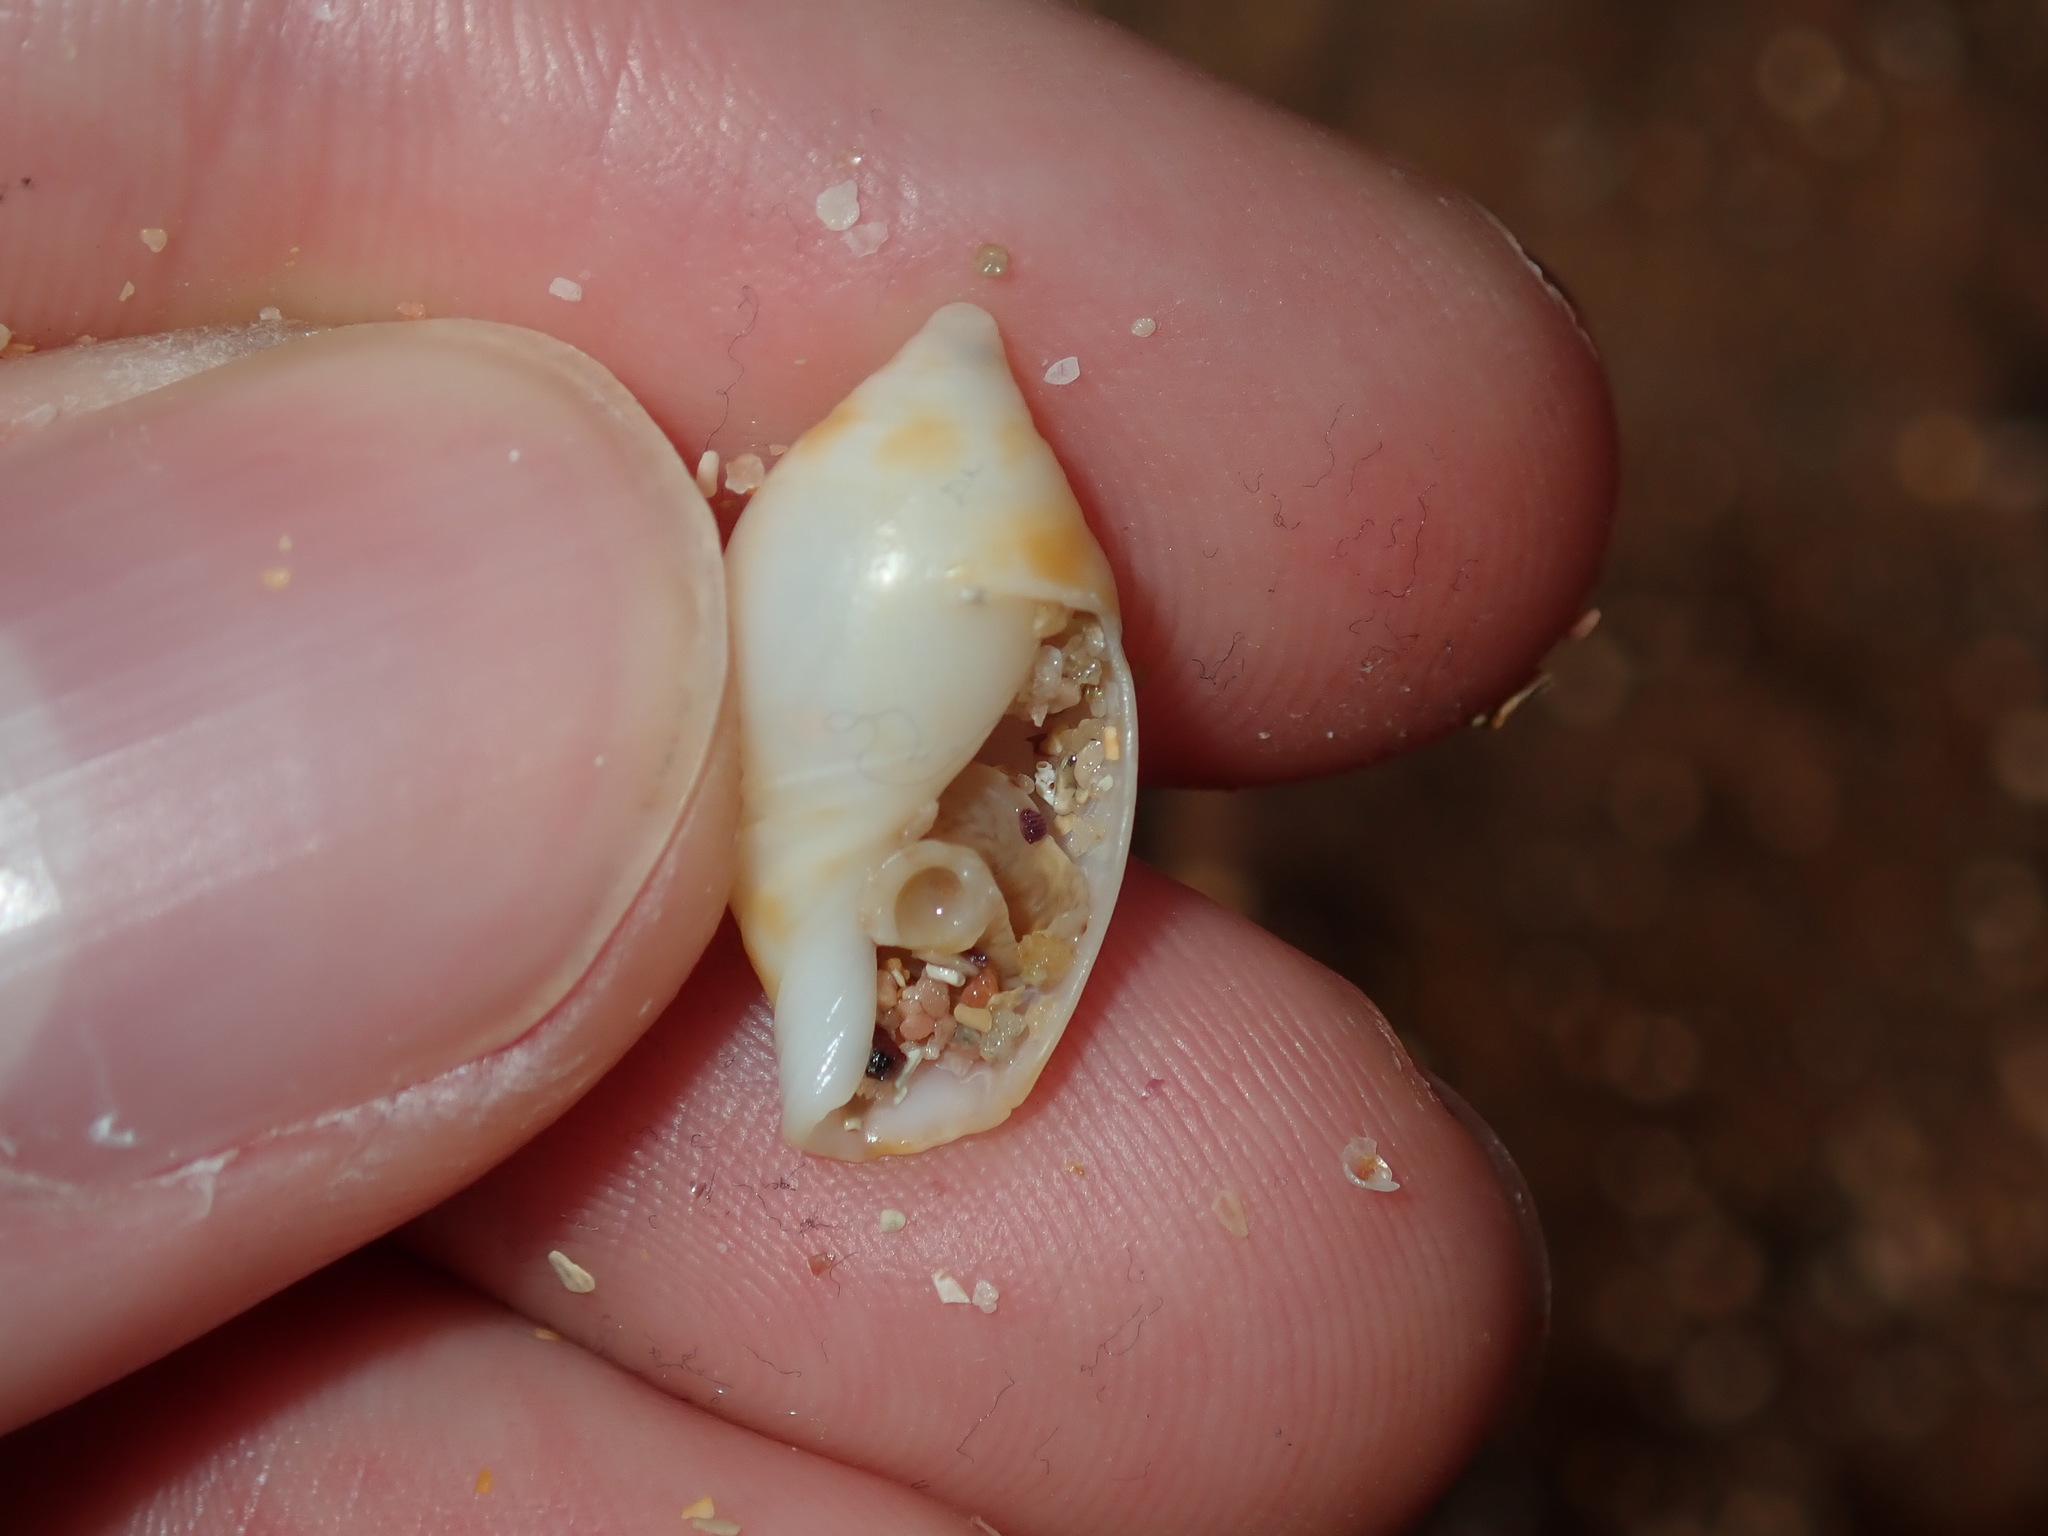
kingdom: Animalia
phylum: Mollusca
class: Gastropoda
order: Neogastropoda
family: Ancillariidae
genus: Amalda
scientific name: Amalda marginata
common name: Margin ancilla
